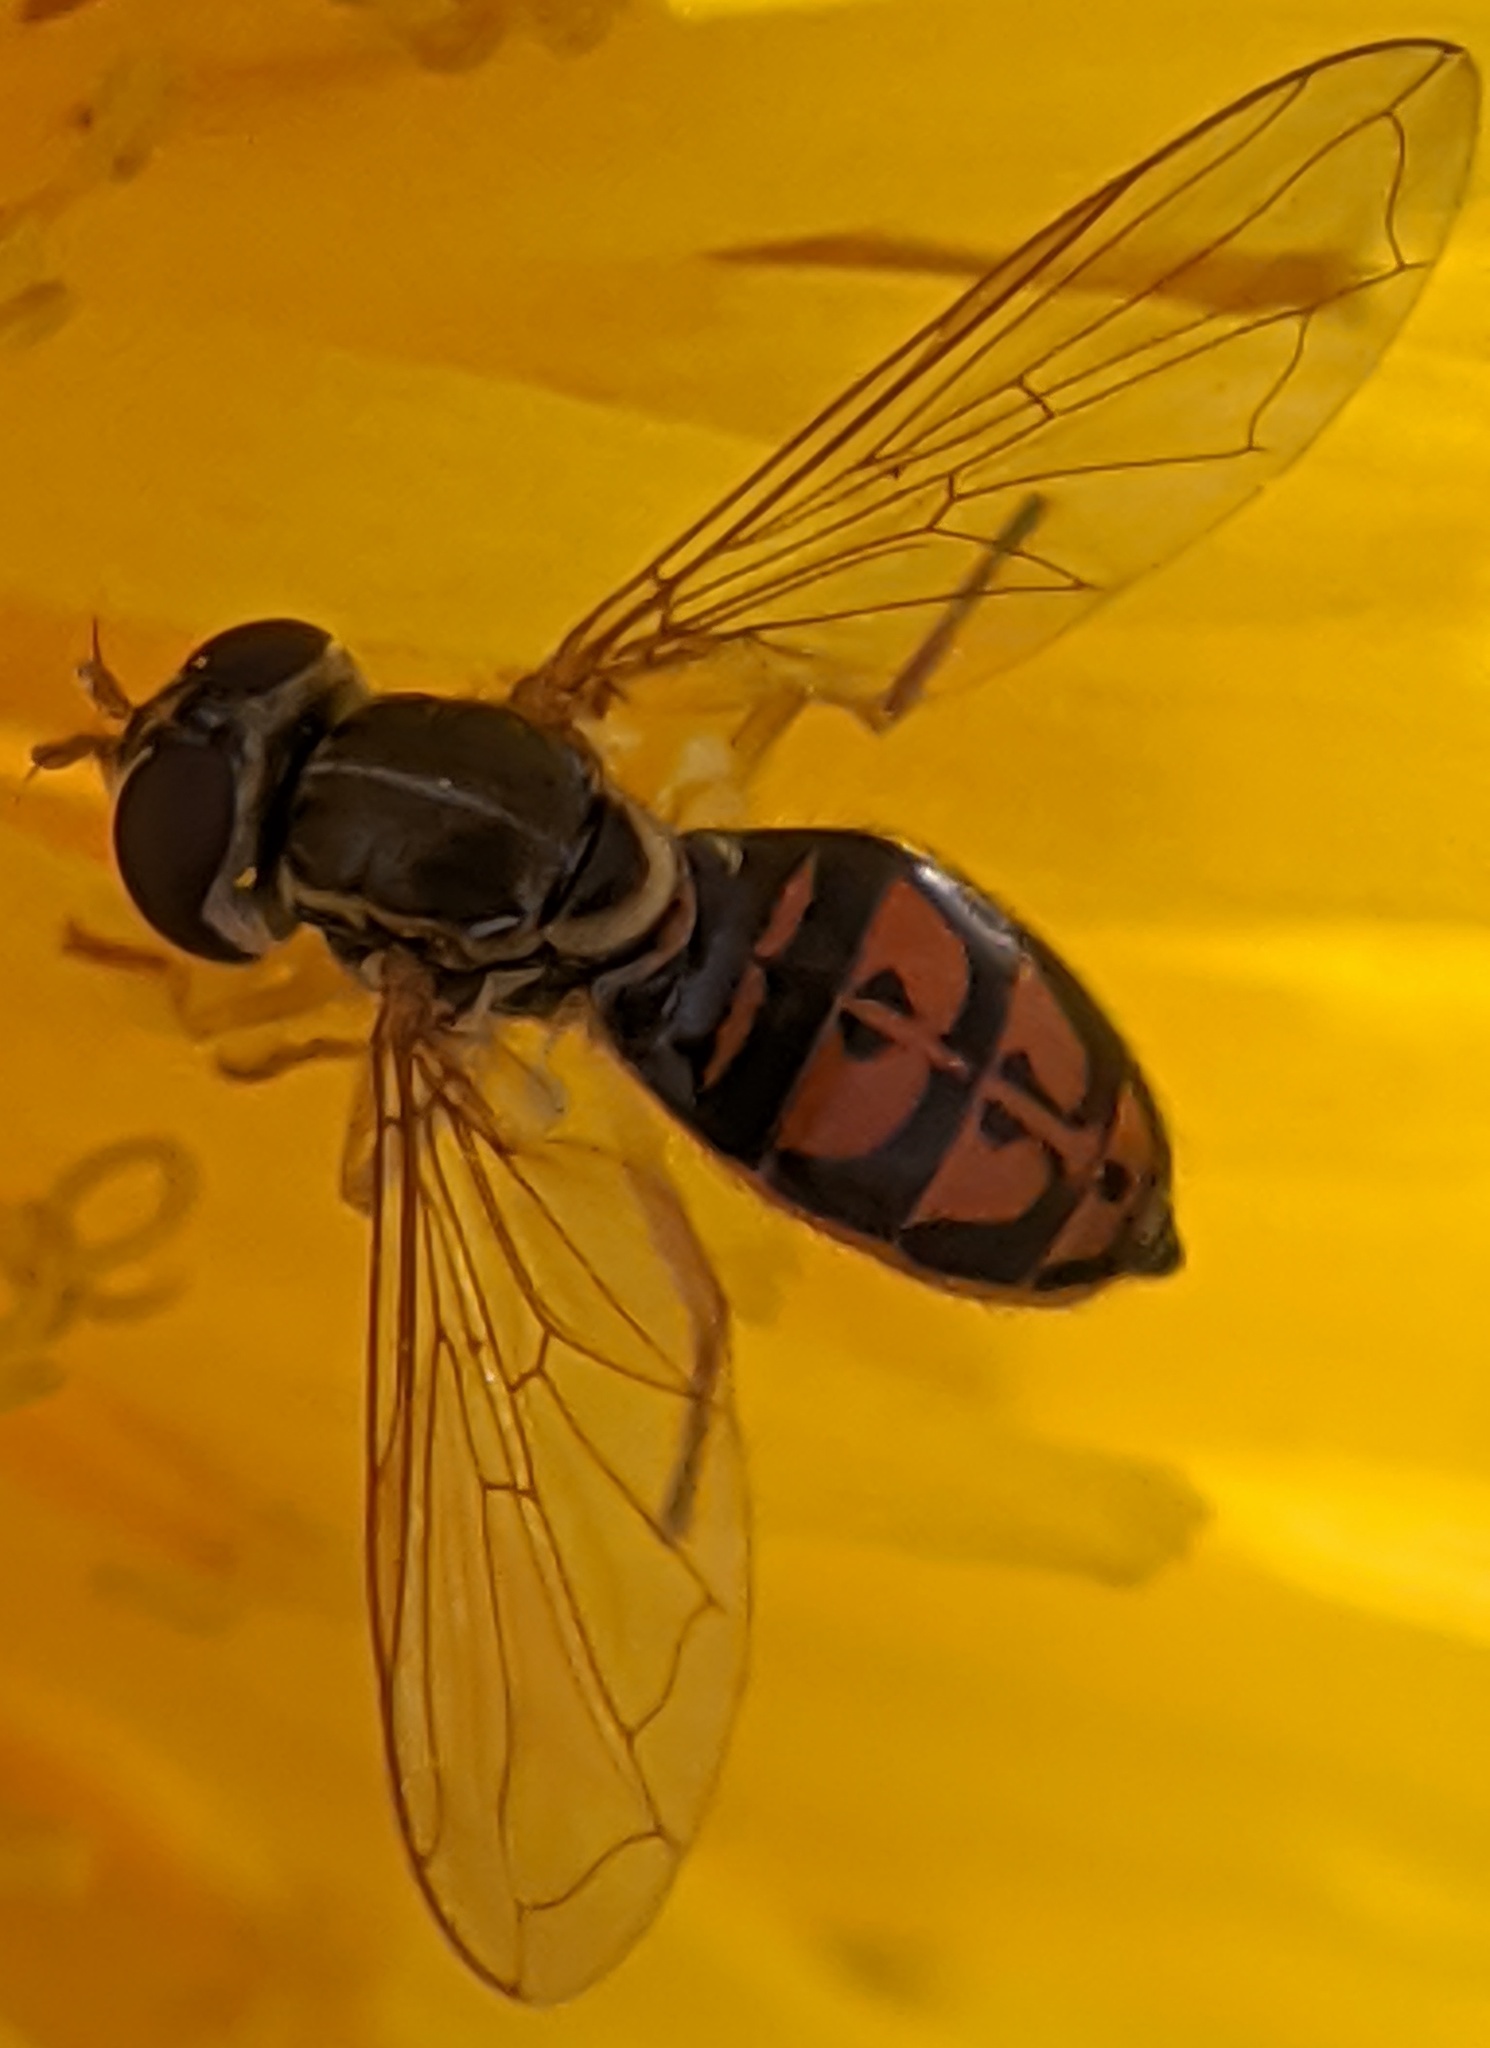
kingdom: Animalia
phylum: Arthropoda
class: Insecta
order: Diptera
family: Syrphidae
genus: Toxomerus
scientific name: Toxomerus marginatus
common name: Syrphid fly
